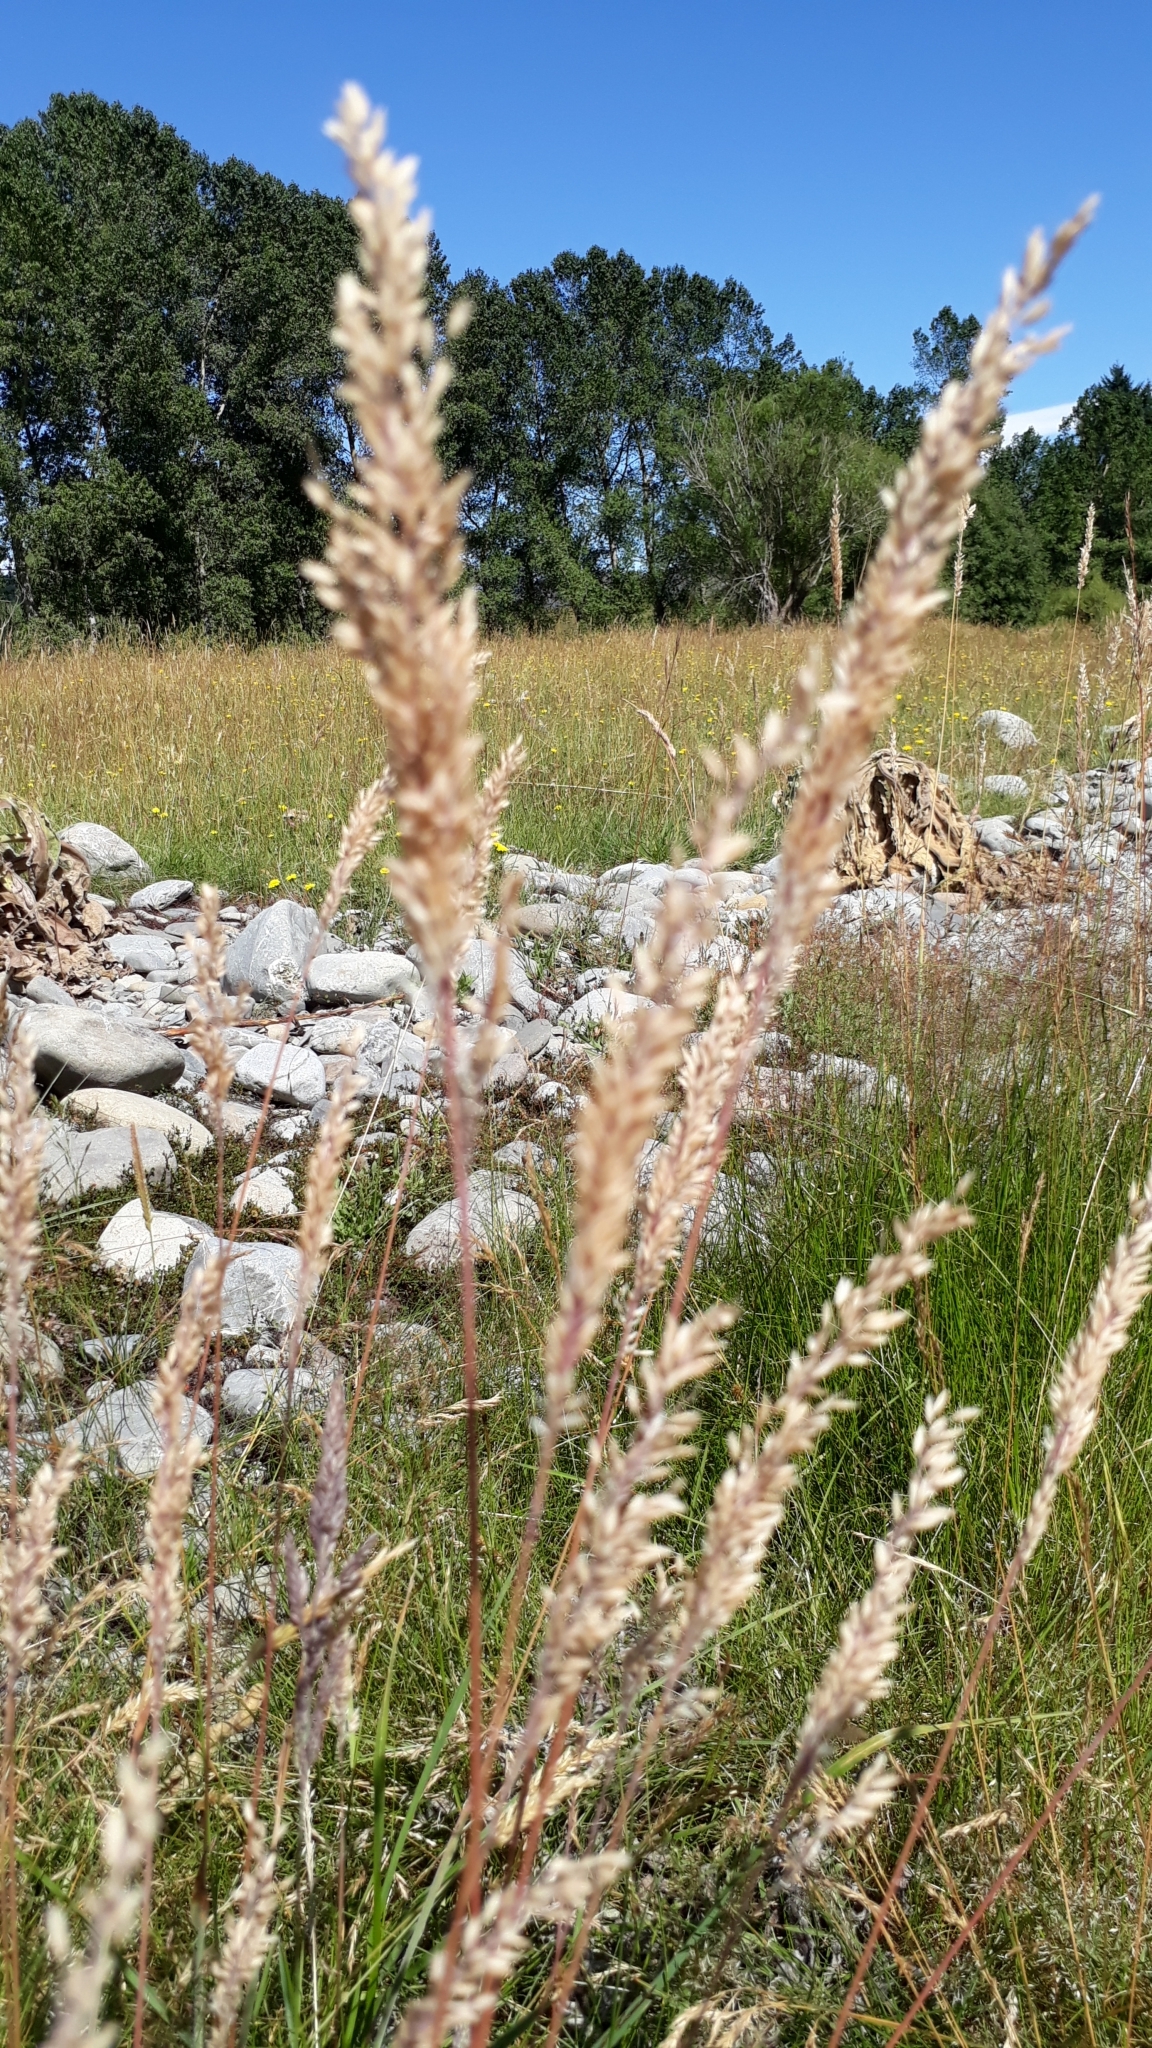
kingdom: Plantae
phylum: Tracheophyta
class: Liliopsida
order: Poales
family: Poaceae
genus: Holcus
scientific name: Holcus lanatus
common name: Yorkshire-fog
